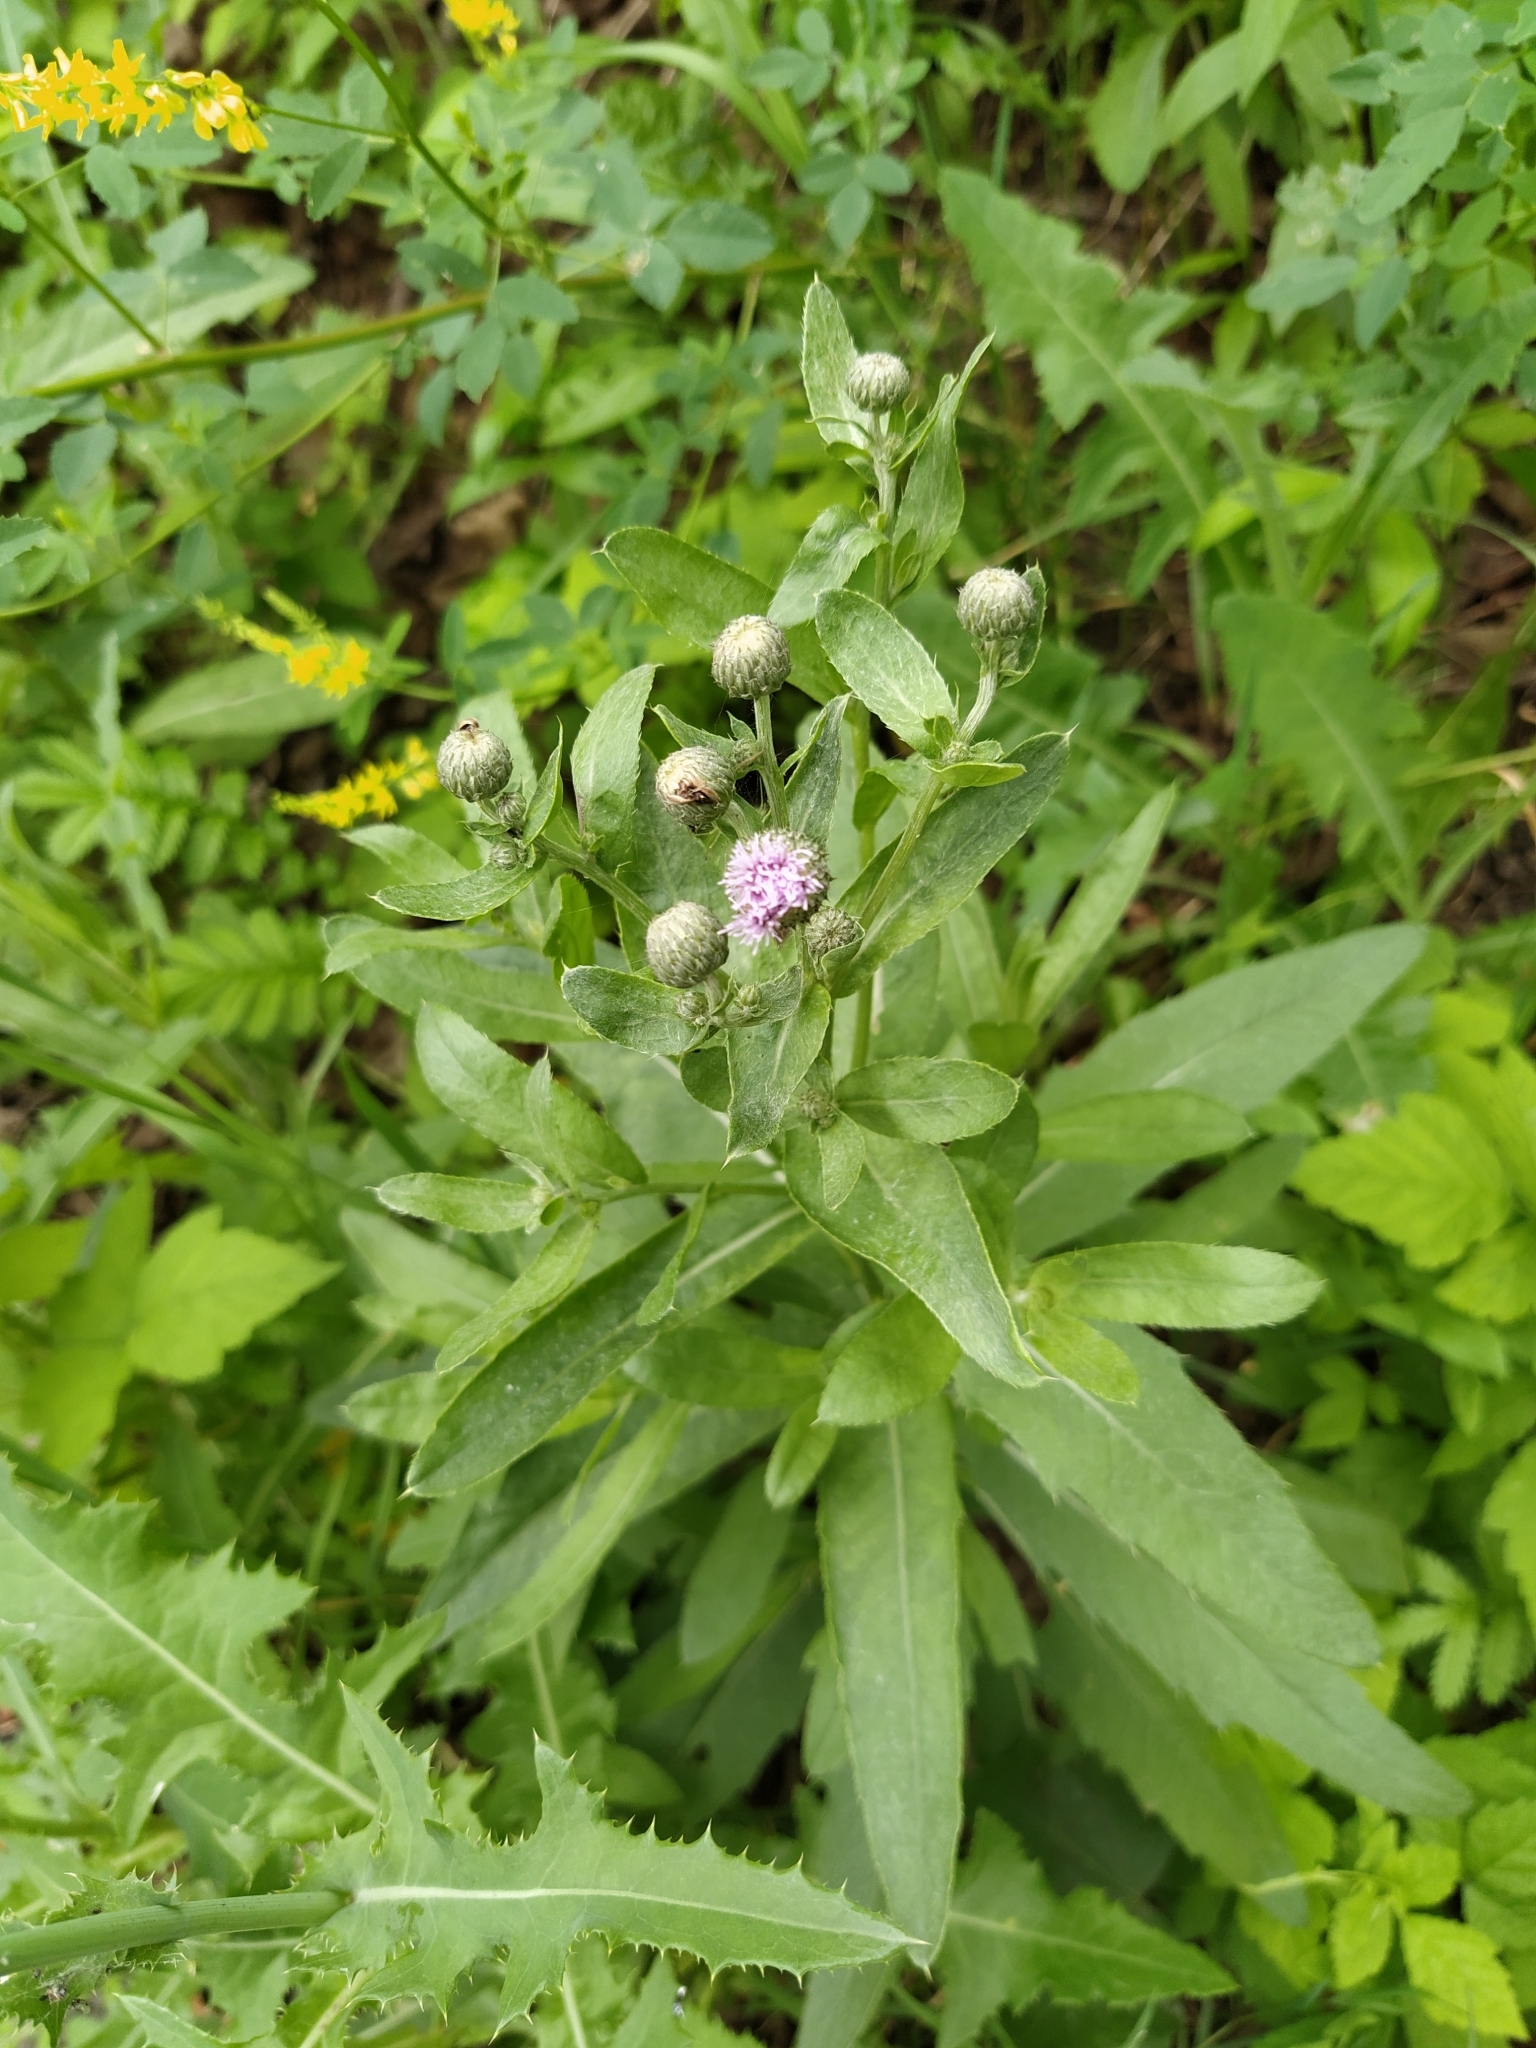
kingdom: Plantae
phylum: Tracheophyta
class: Magnoliopsida
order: Asterales
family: Asteraceae
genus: Cirsium
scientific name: Cirsium arvense
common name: Creeping thistle
